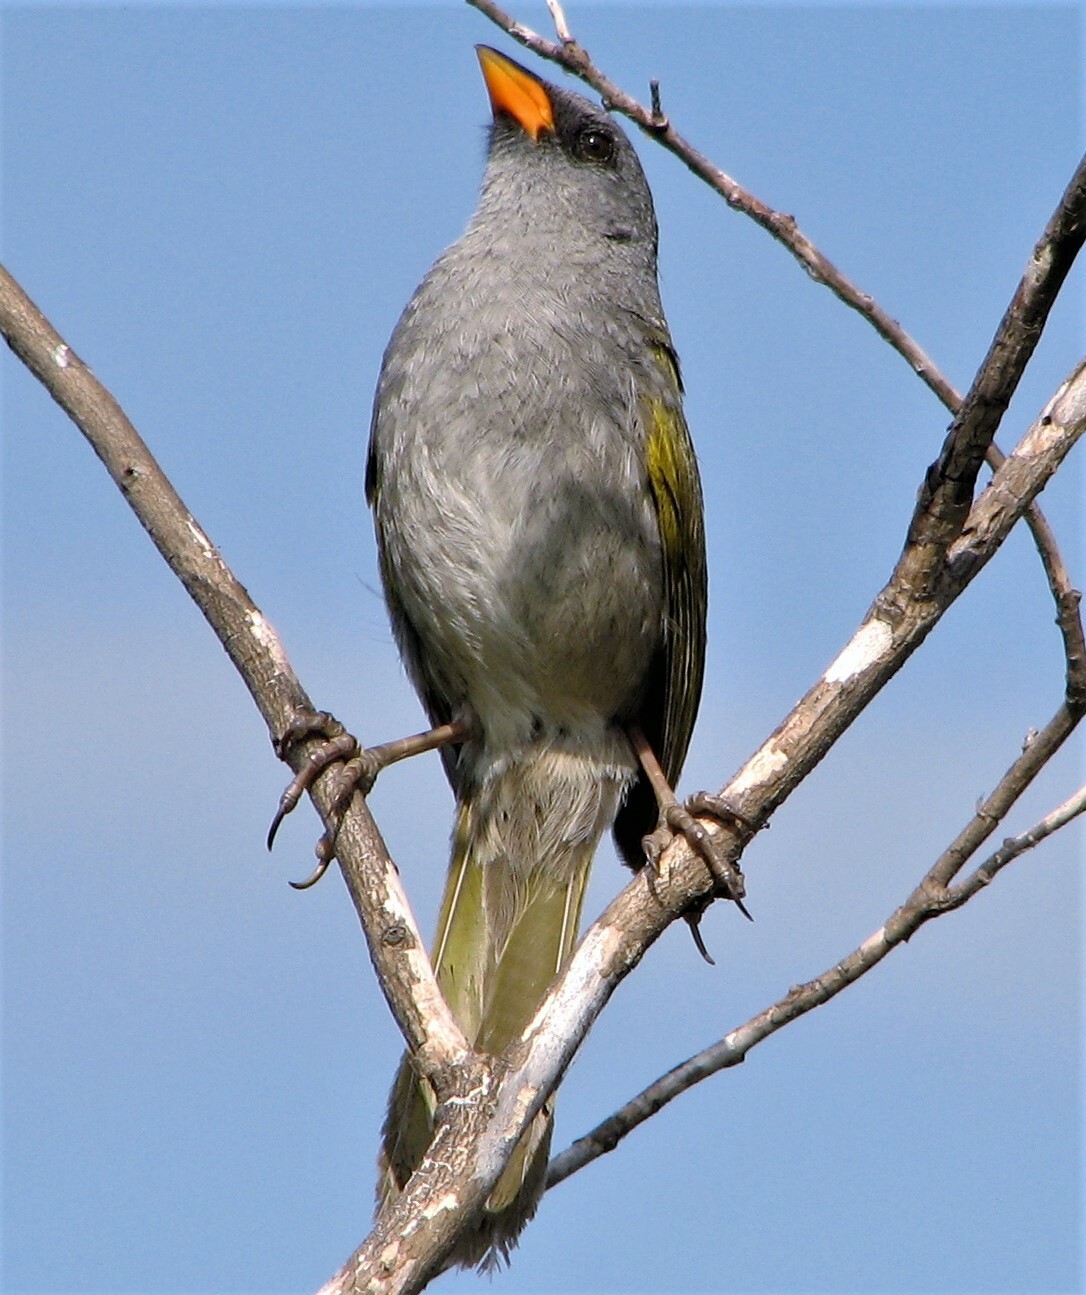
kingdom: Animalia
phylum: Chordata
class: Aves
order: Passeriformes
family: Thraupidae
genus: Embernagra
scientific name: Embernagra platensis
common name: Pampa finch
